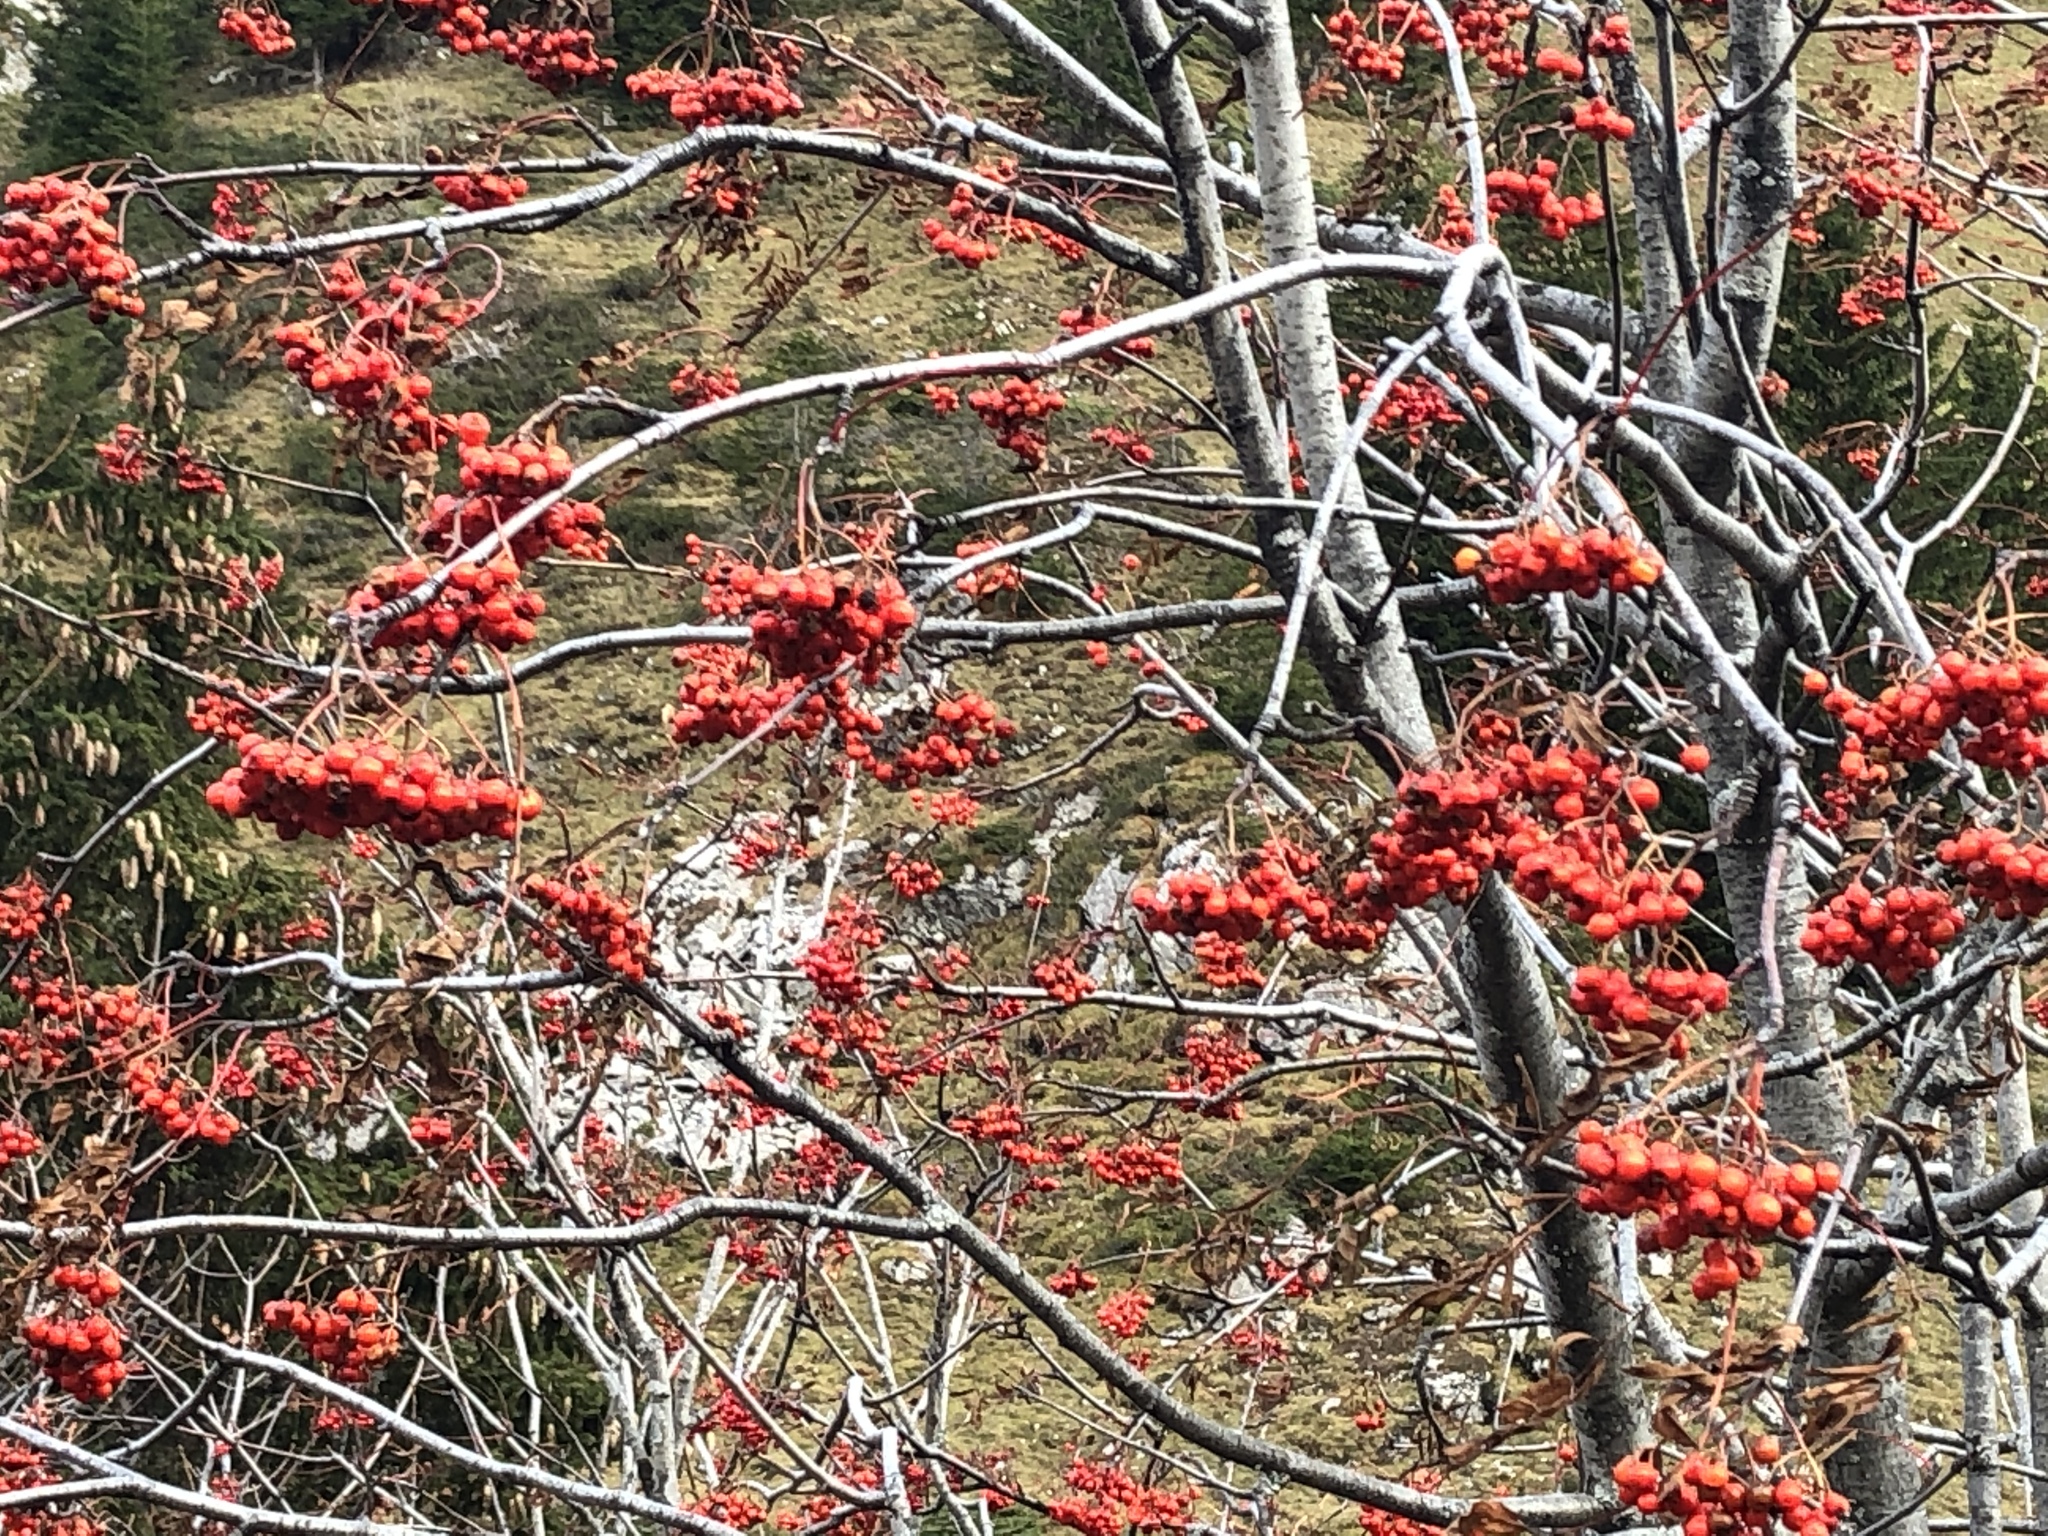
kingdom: Plantae
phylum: Tracheophyta
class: Magnoliopsida
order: Rosales
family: Rosaceae
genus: Sorbus
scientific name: Sorbus aucuparia
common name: Rowan
